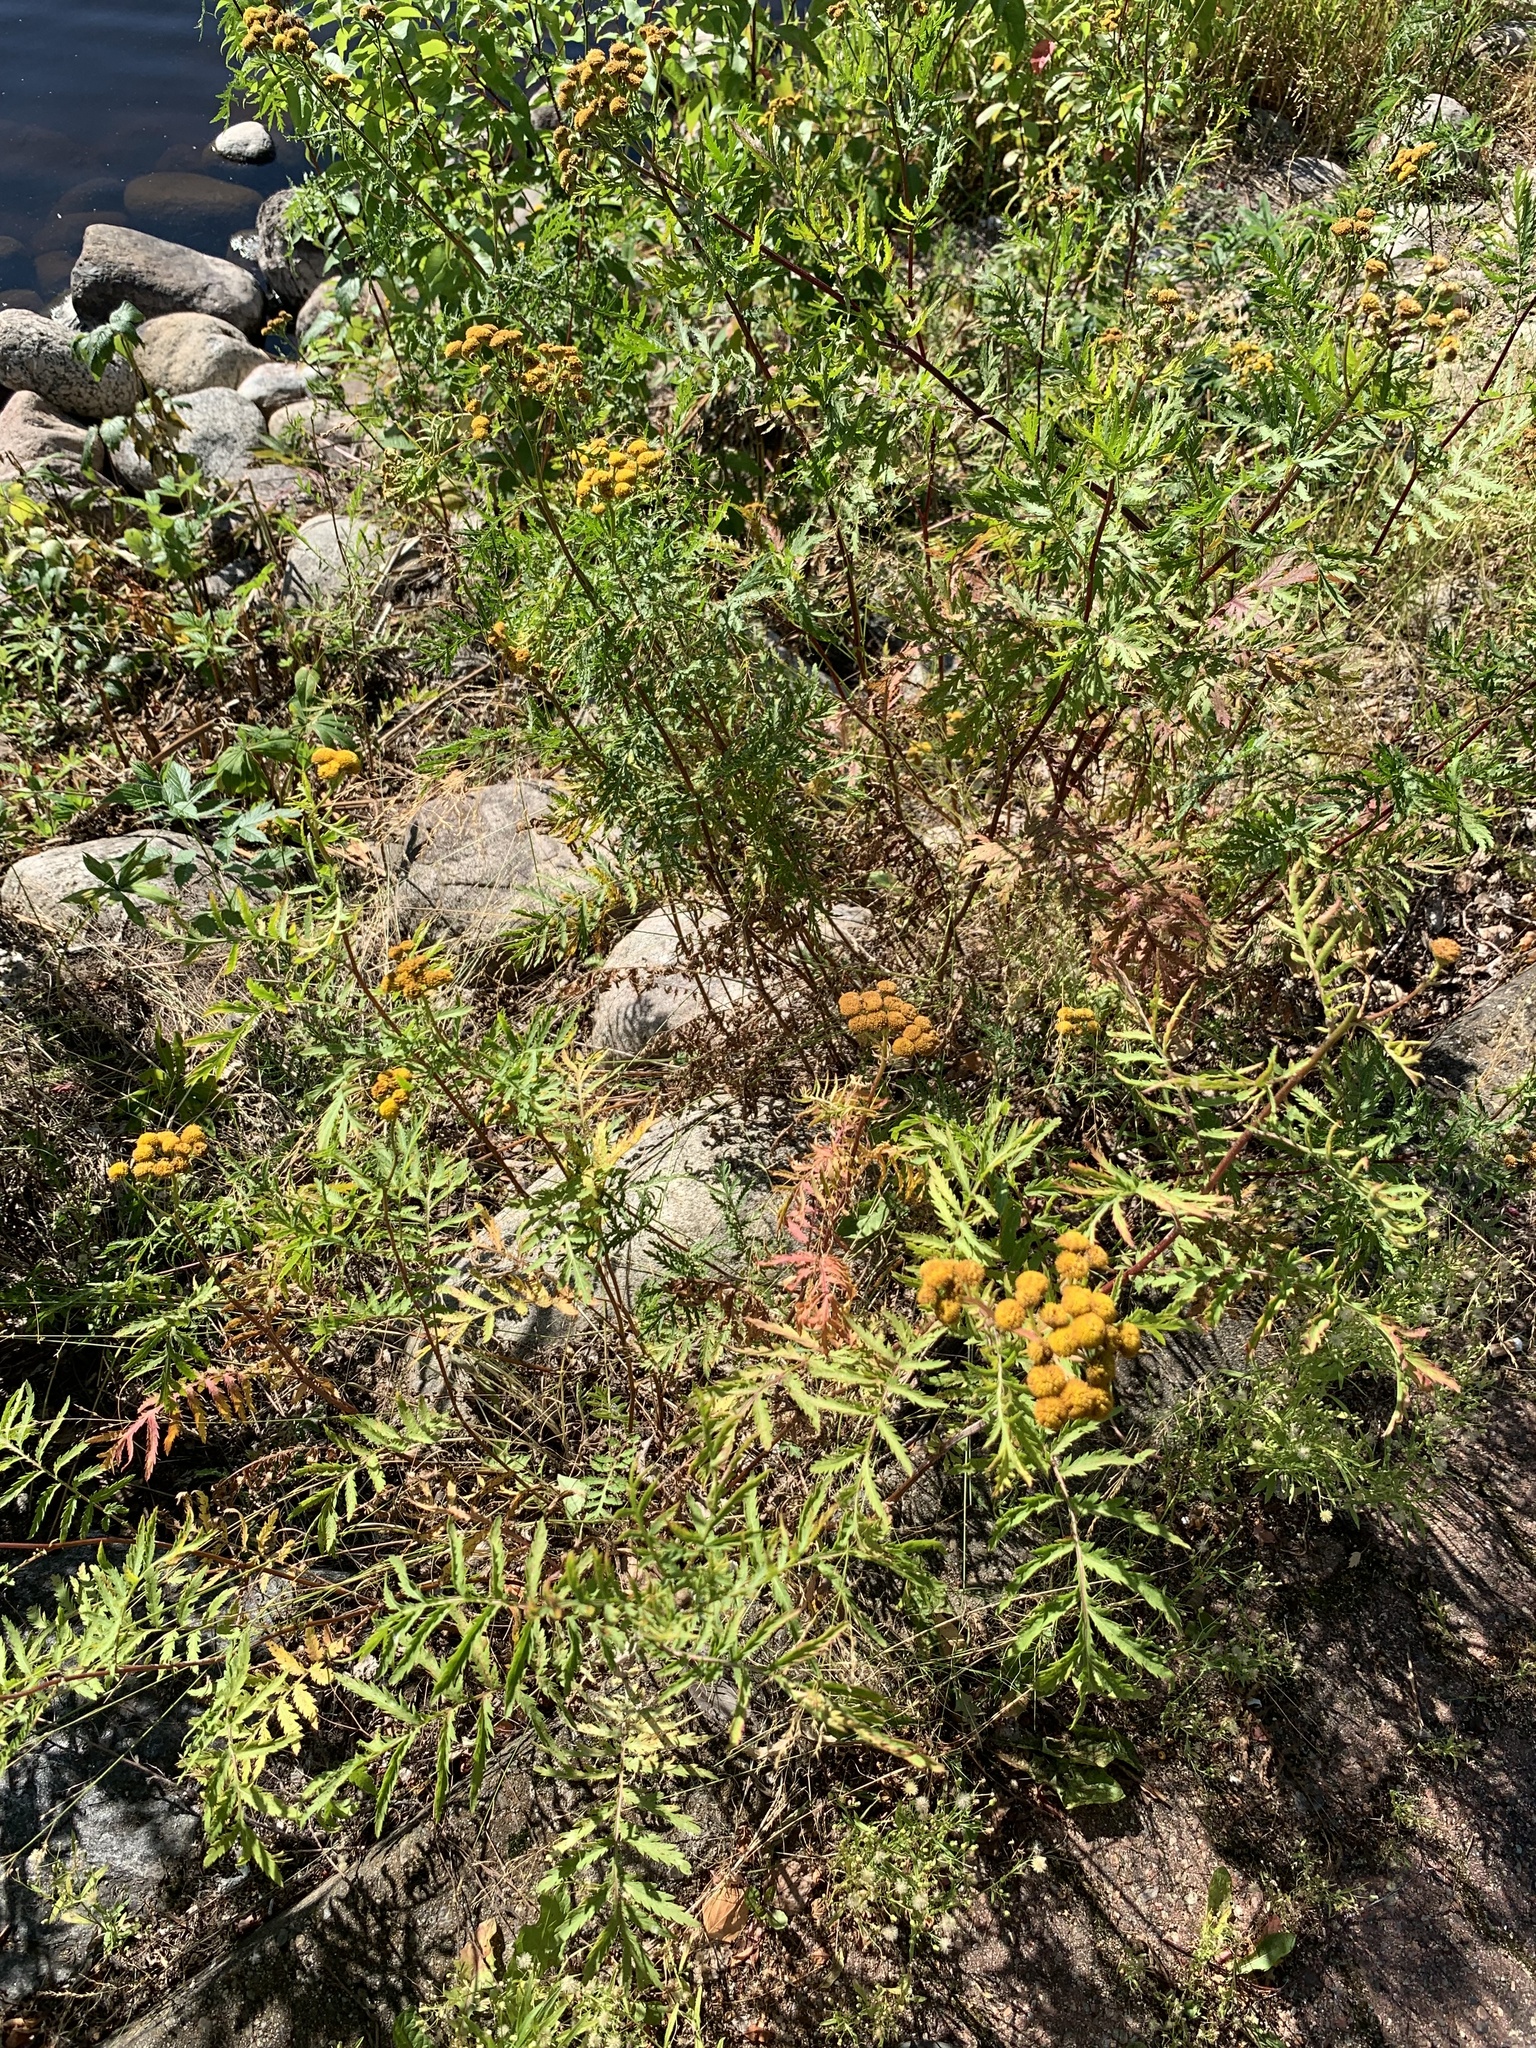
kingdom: Plantae
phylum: Tracheophyta
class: Magnoliopsida
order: Asterales
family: Asteraceae
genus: Tanacetum
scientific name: Tanacetum vulgare
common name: Common tansy
